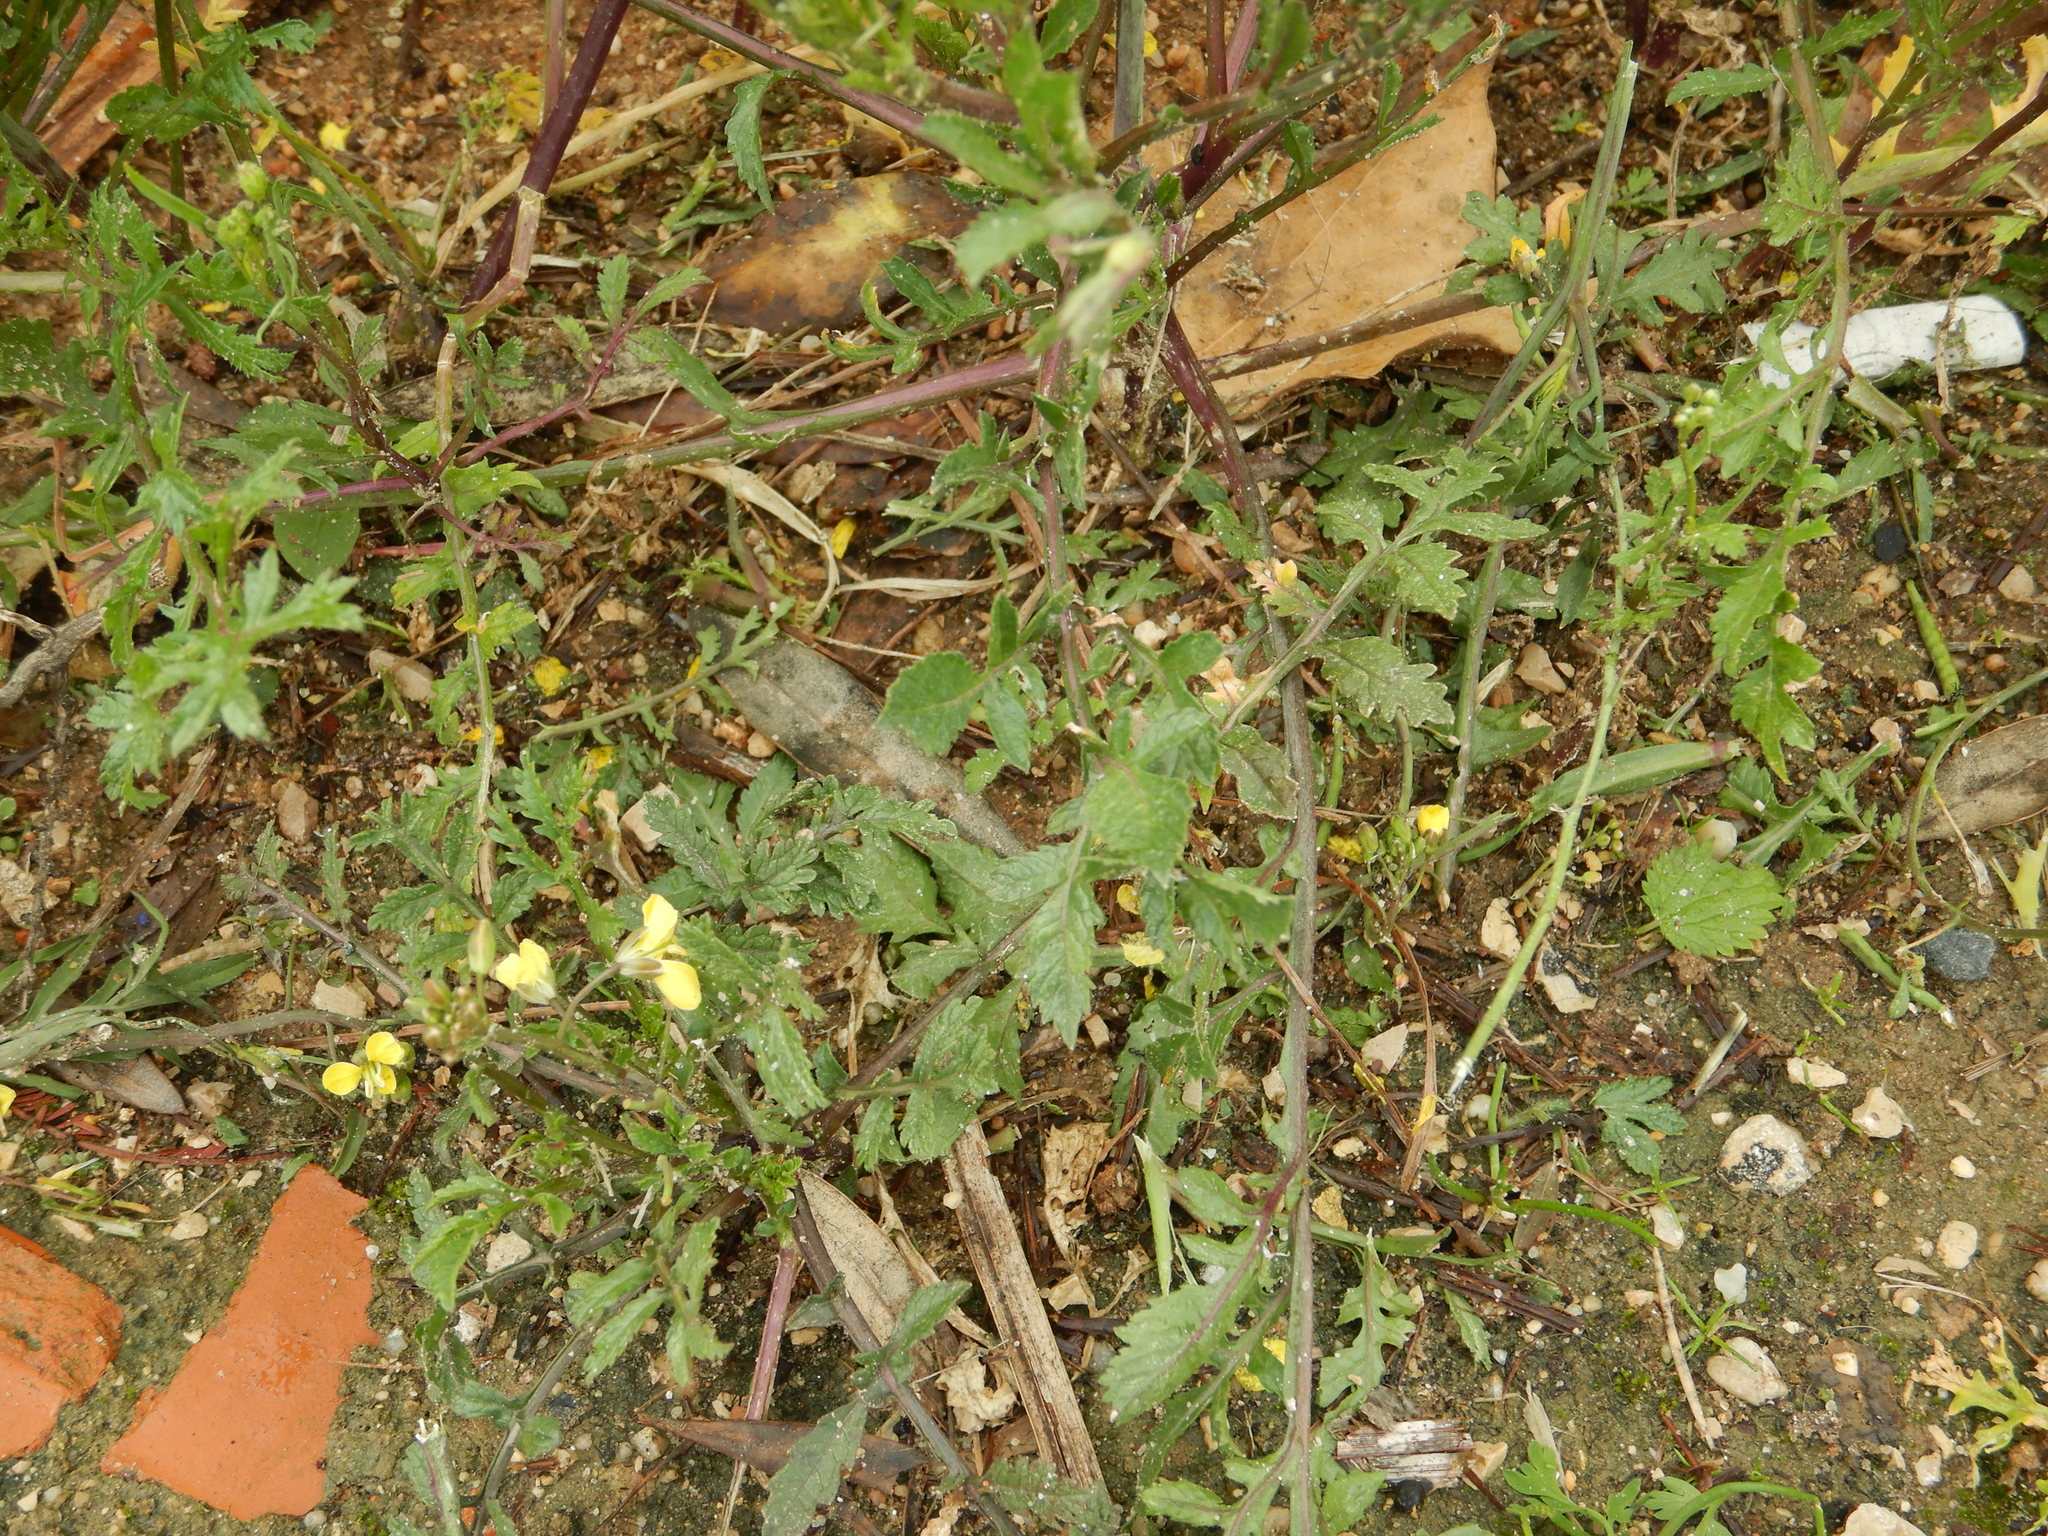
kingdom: Plantae
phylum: Tracheophyta
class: Magnoliopsida
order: Brassicales
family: Brassicaceae
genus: Diplotaxis
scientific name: Diplotaxis catholica
